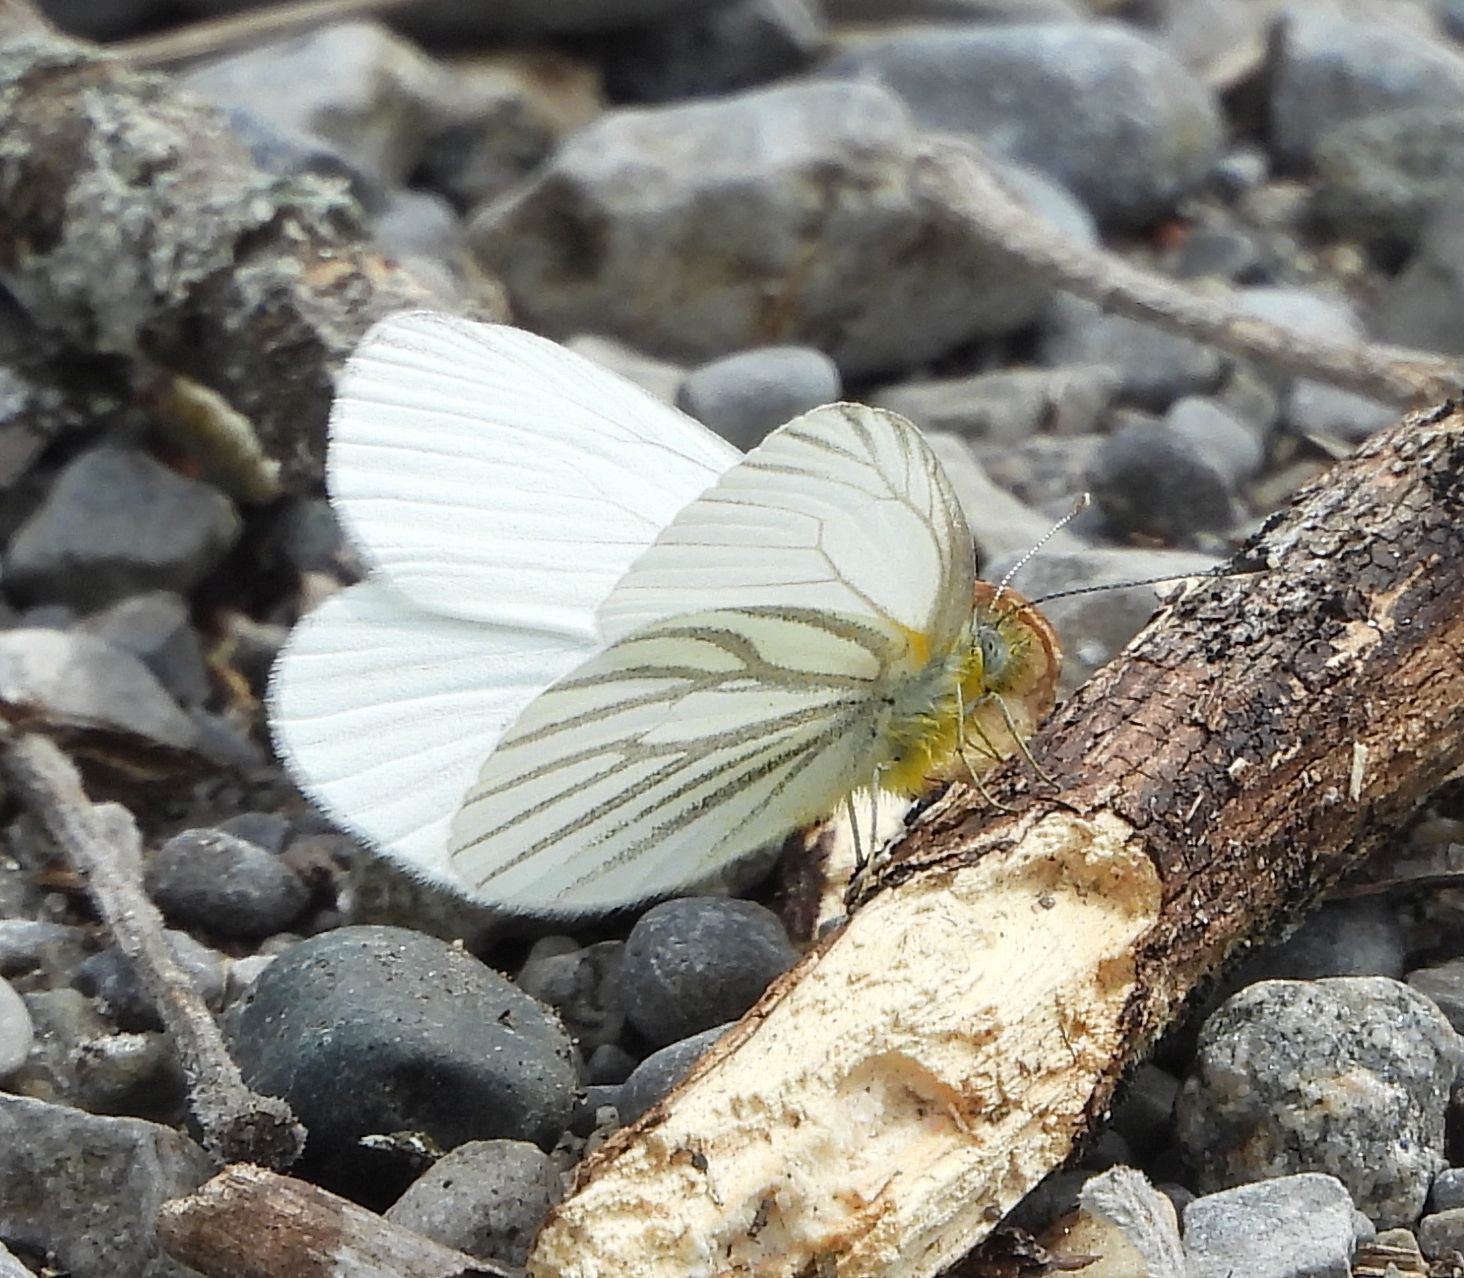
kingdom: Animalia
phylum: Arthropoda
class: Insecta
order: Lepidoptera
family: Pieridae
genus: Pieris
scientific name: Pieris oleracea
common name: Mustard white
